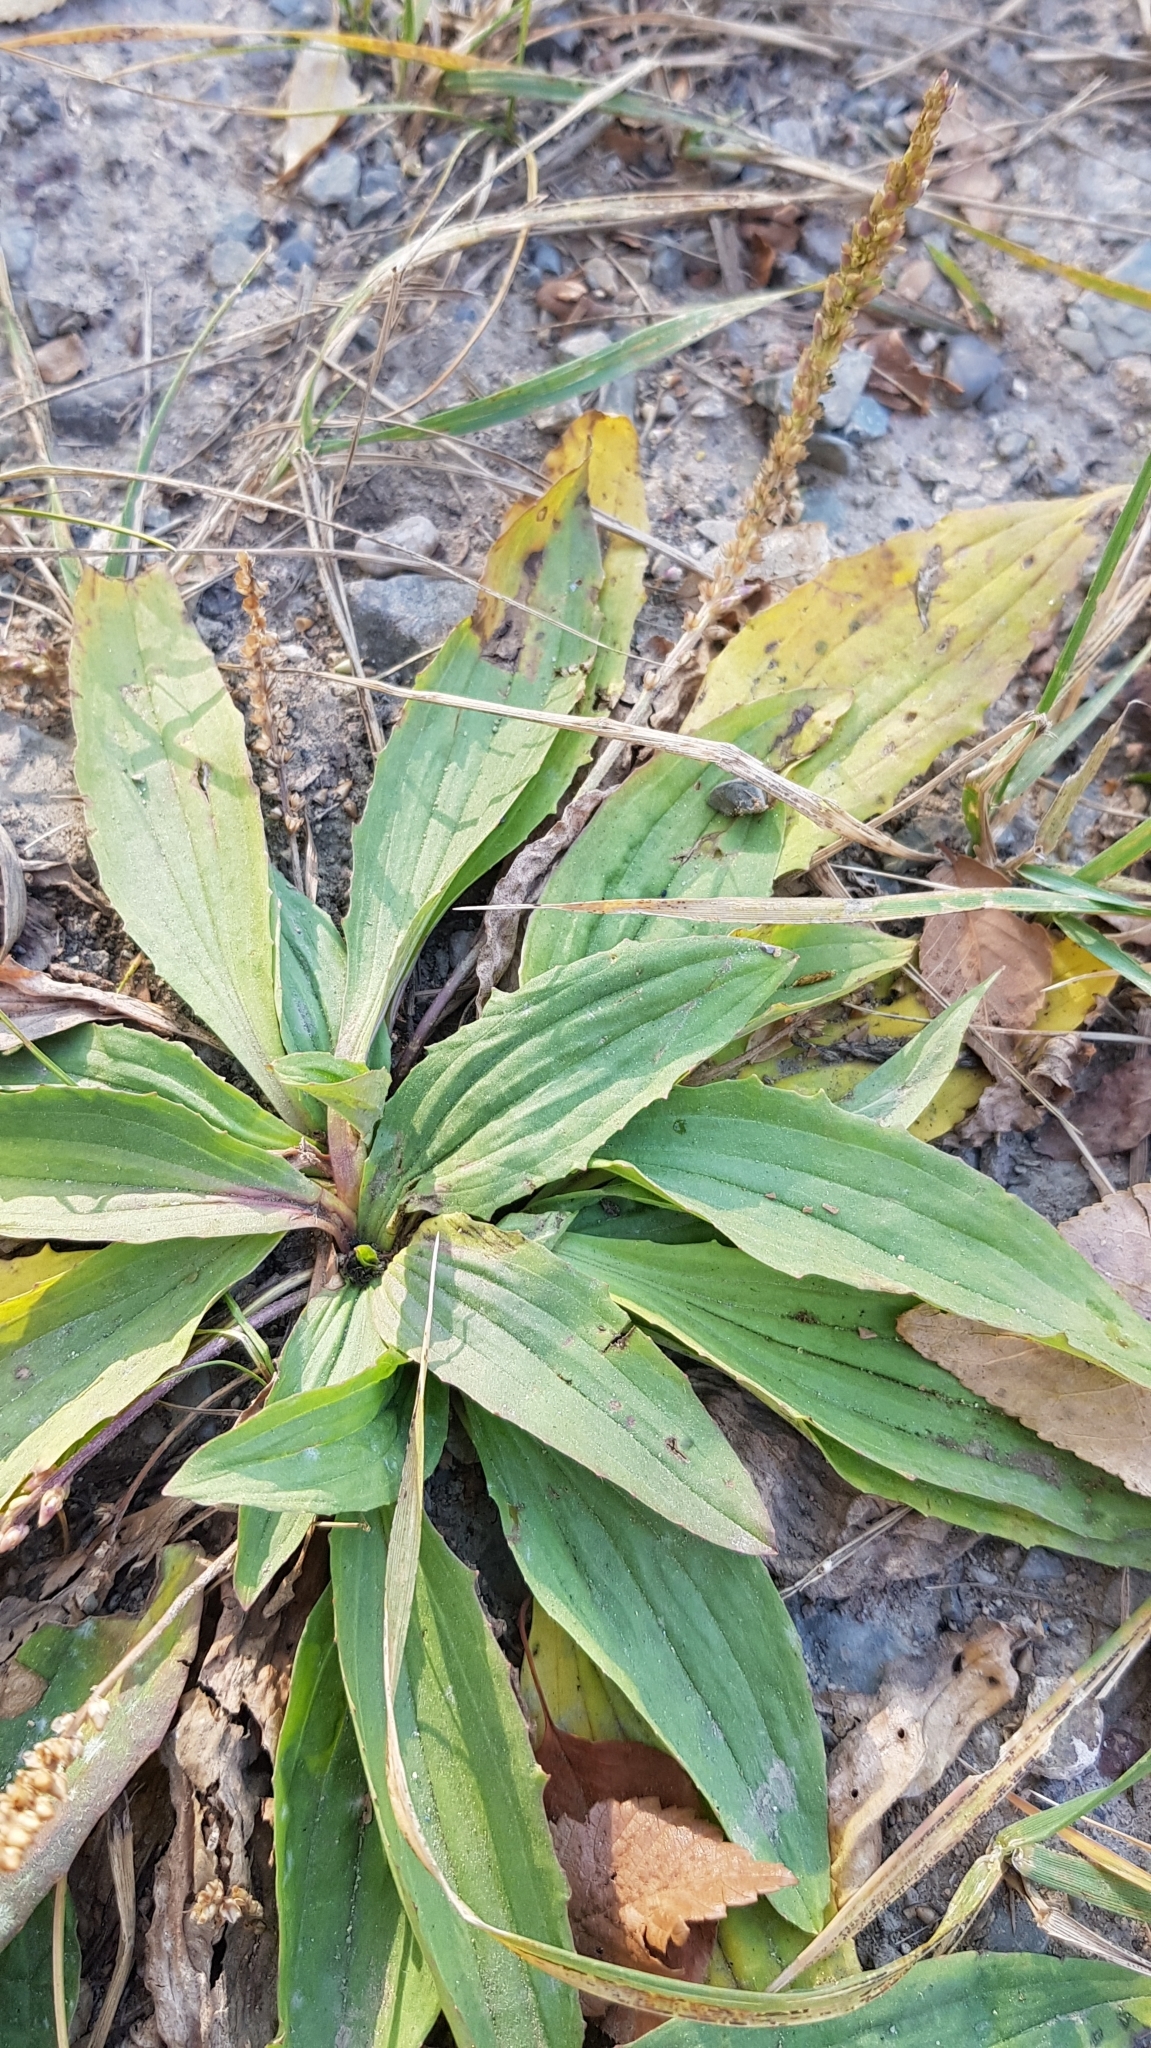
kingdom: Plantae
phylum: Tracheophyta
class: Magnoliopsida
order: Lamiales
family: Plantaginaceae
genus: Plantago
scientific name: Plantago depressa
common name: Depressed plantain
